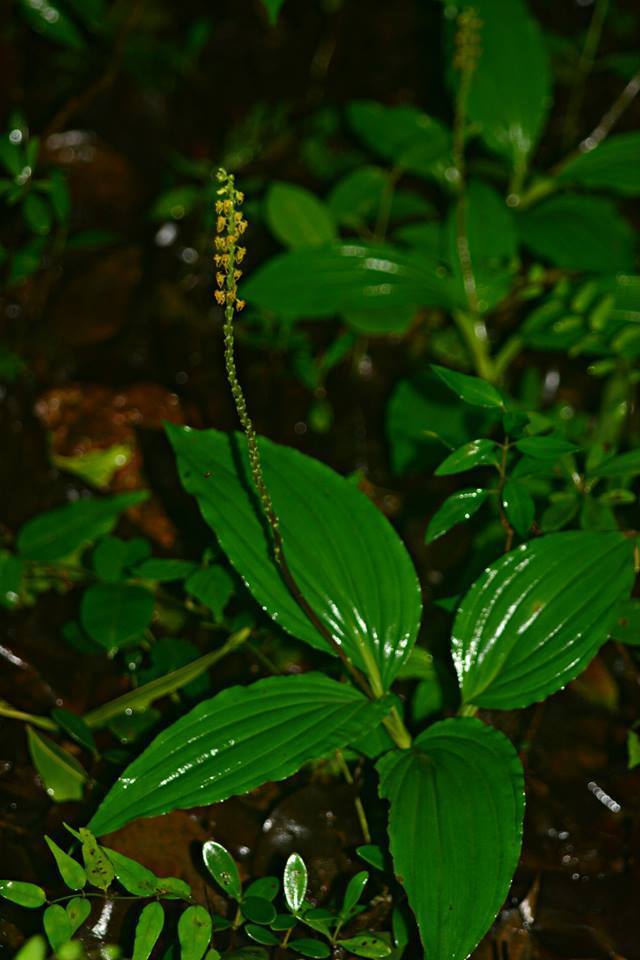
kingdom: Plantae
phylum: Tracheophyta
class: Liliopsida
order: Asparagales
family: Orchidaceae
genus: Malaxis
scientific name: Malaxis versicolor
